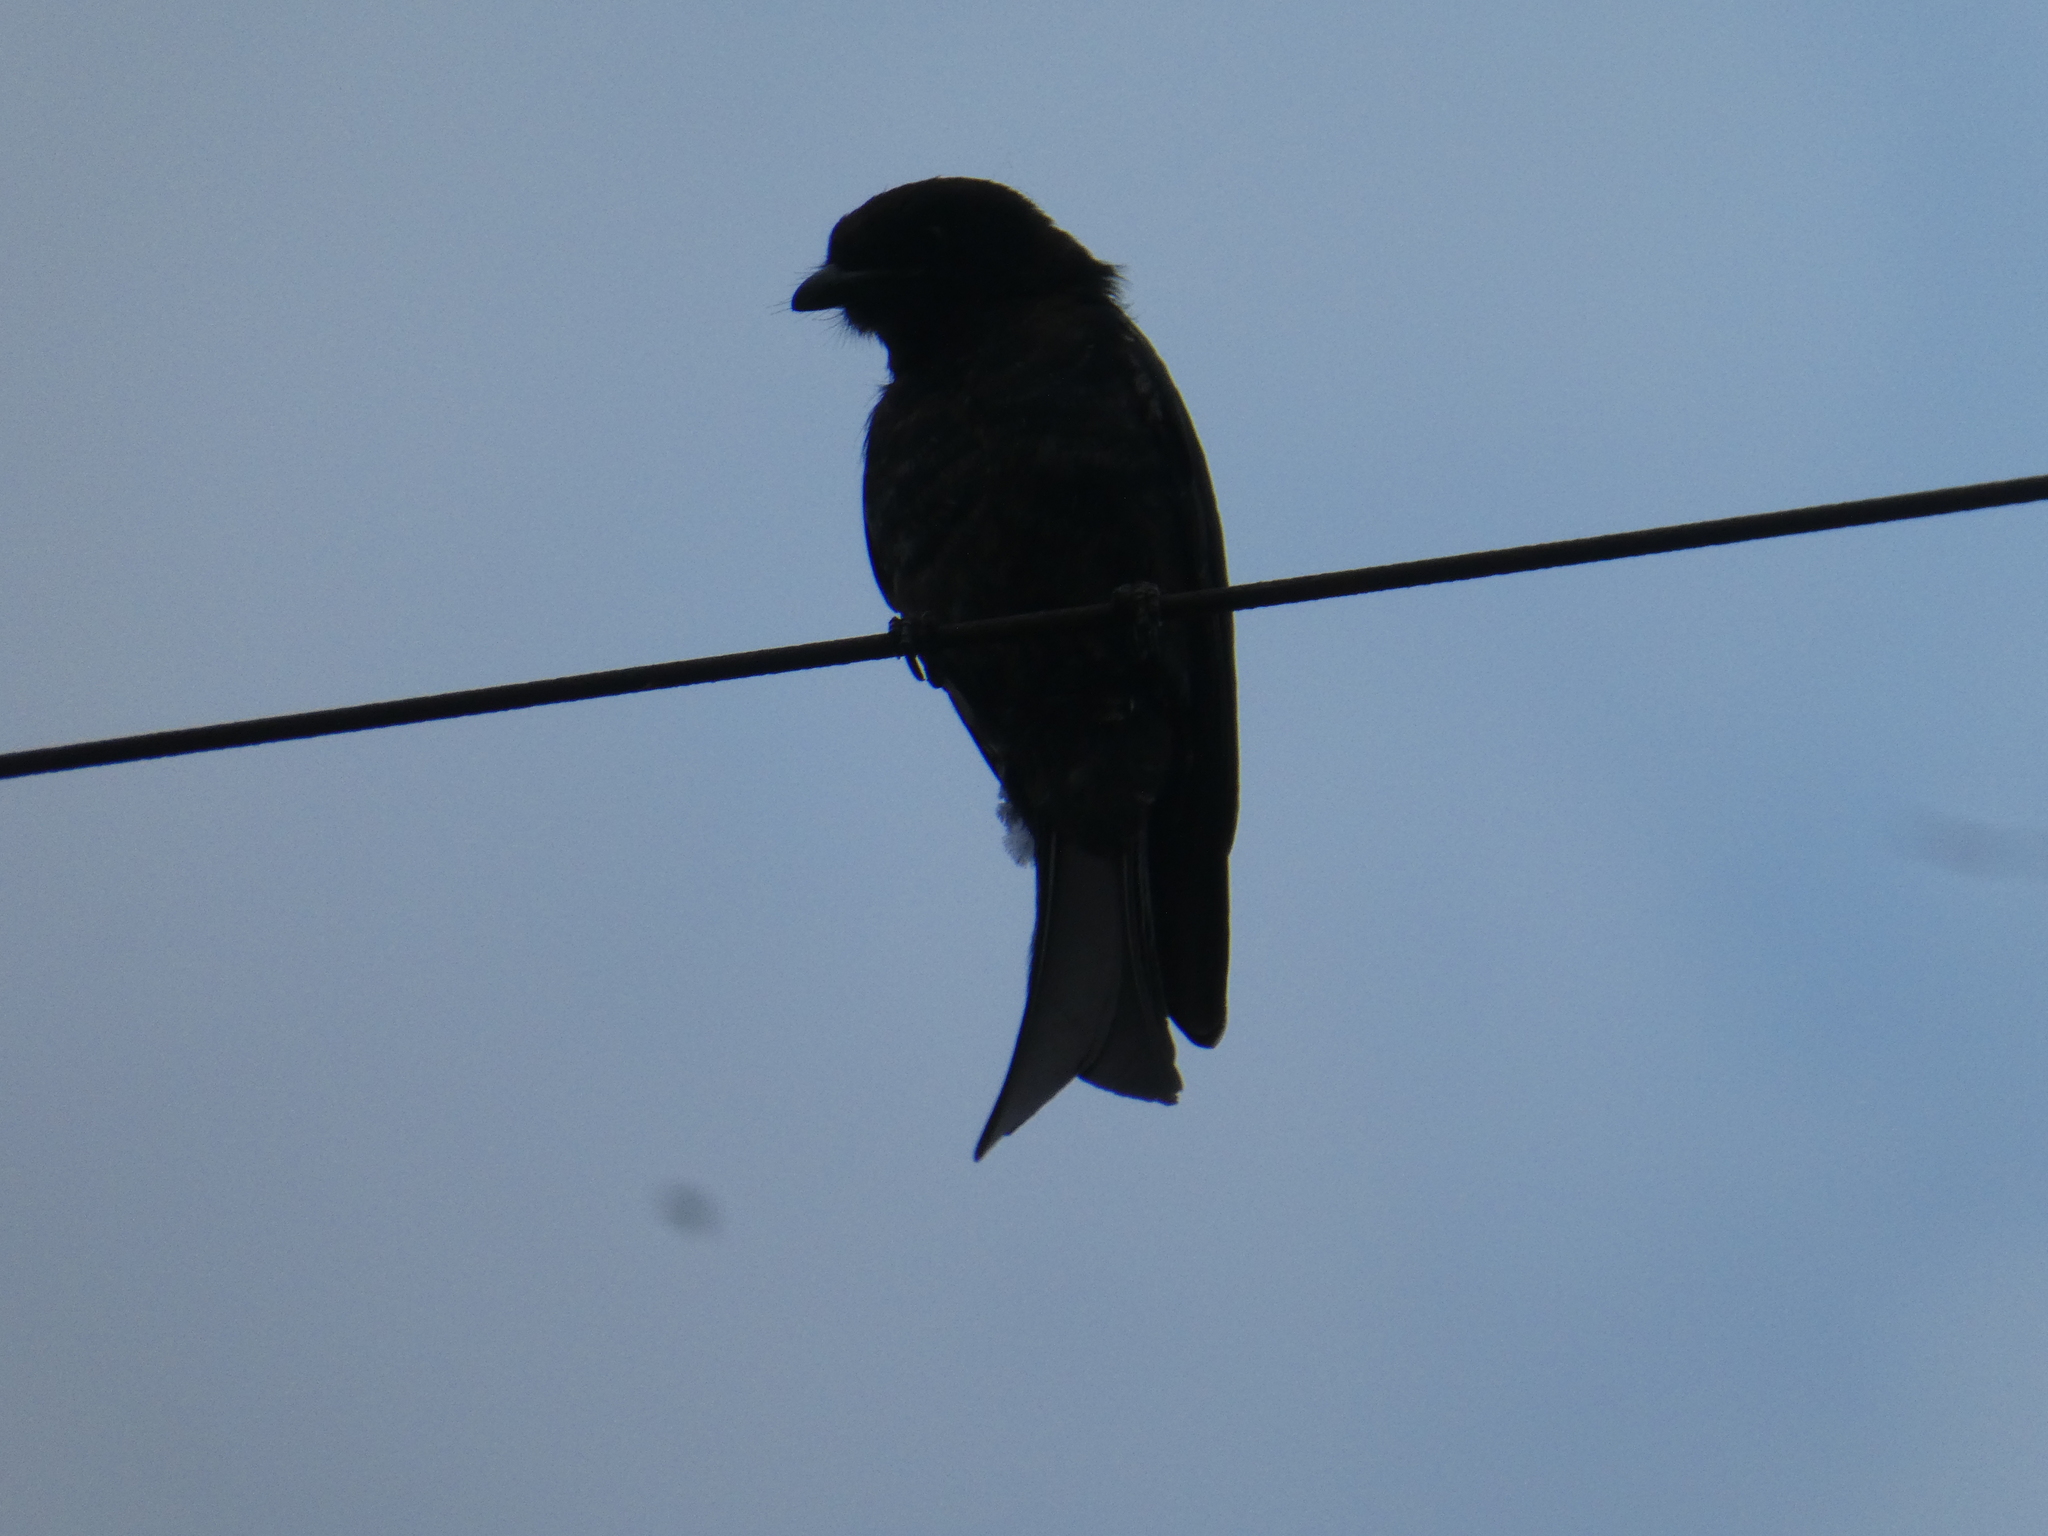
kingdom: Animalia
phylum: Chordata
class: Aves
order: Passeriformes
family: Dicruridae
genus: Dicrurus
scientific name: Dicrurus adsimilis
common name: Fork-tailed drongo
